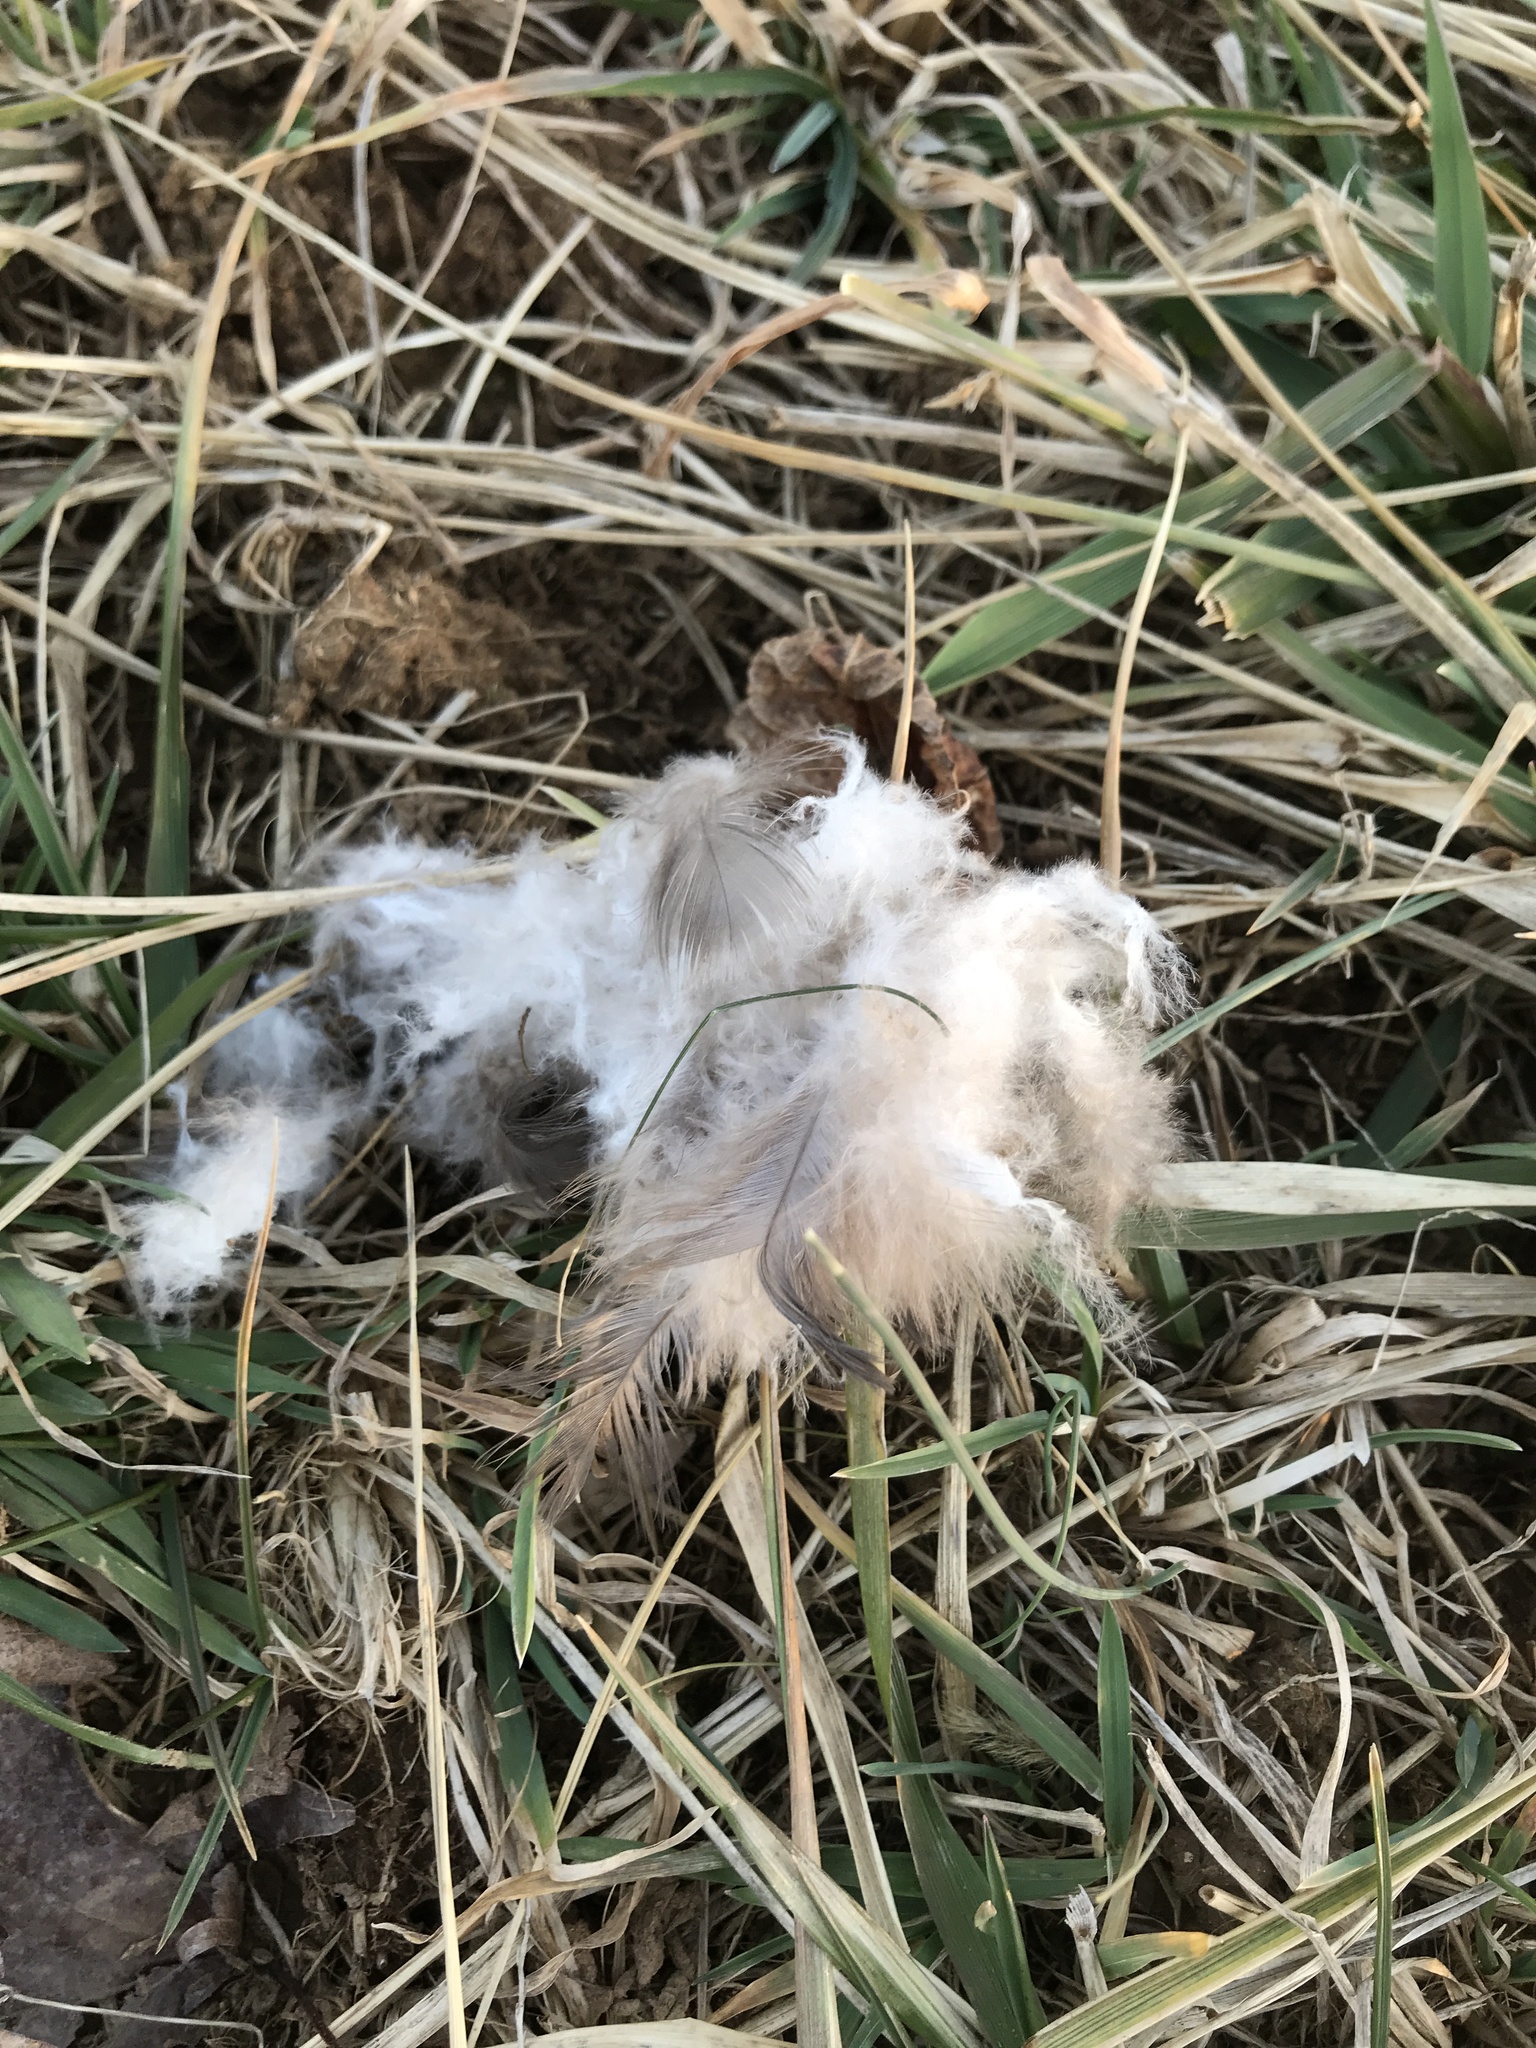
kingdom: Animalia
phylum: Chordata
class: Aves
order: Anseriformes
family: Anatidae
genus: Branta
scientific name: Branta canadensis
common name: Canada goose
